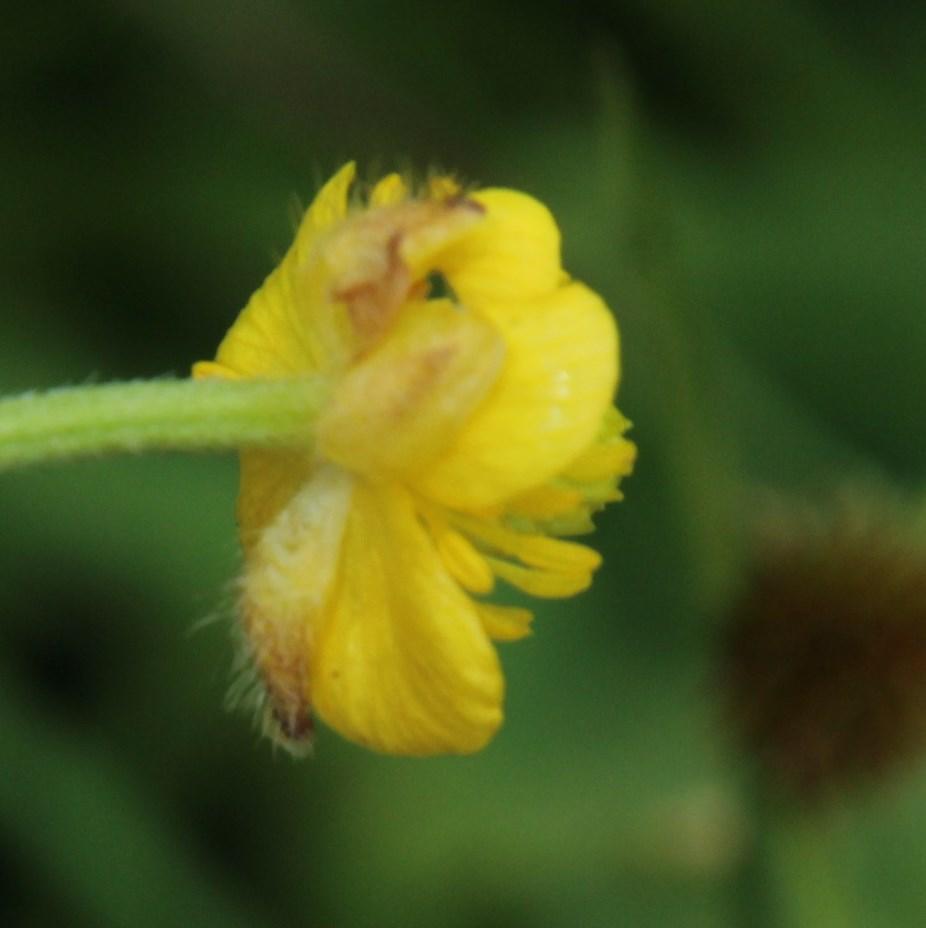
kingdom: Plantae
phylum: Tracheophyta
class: Magnoliopsida
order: Ranunculales
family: Ranunculaceae
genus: Ranunculus
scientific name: Ranunculus multifidus
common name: Wild buttercup
